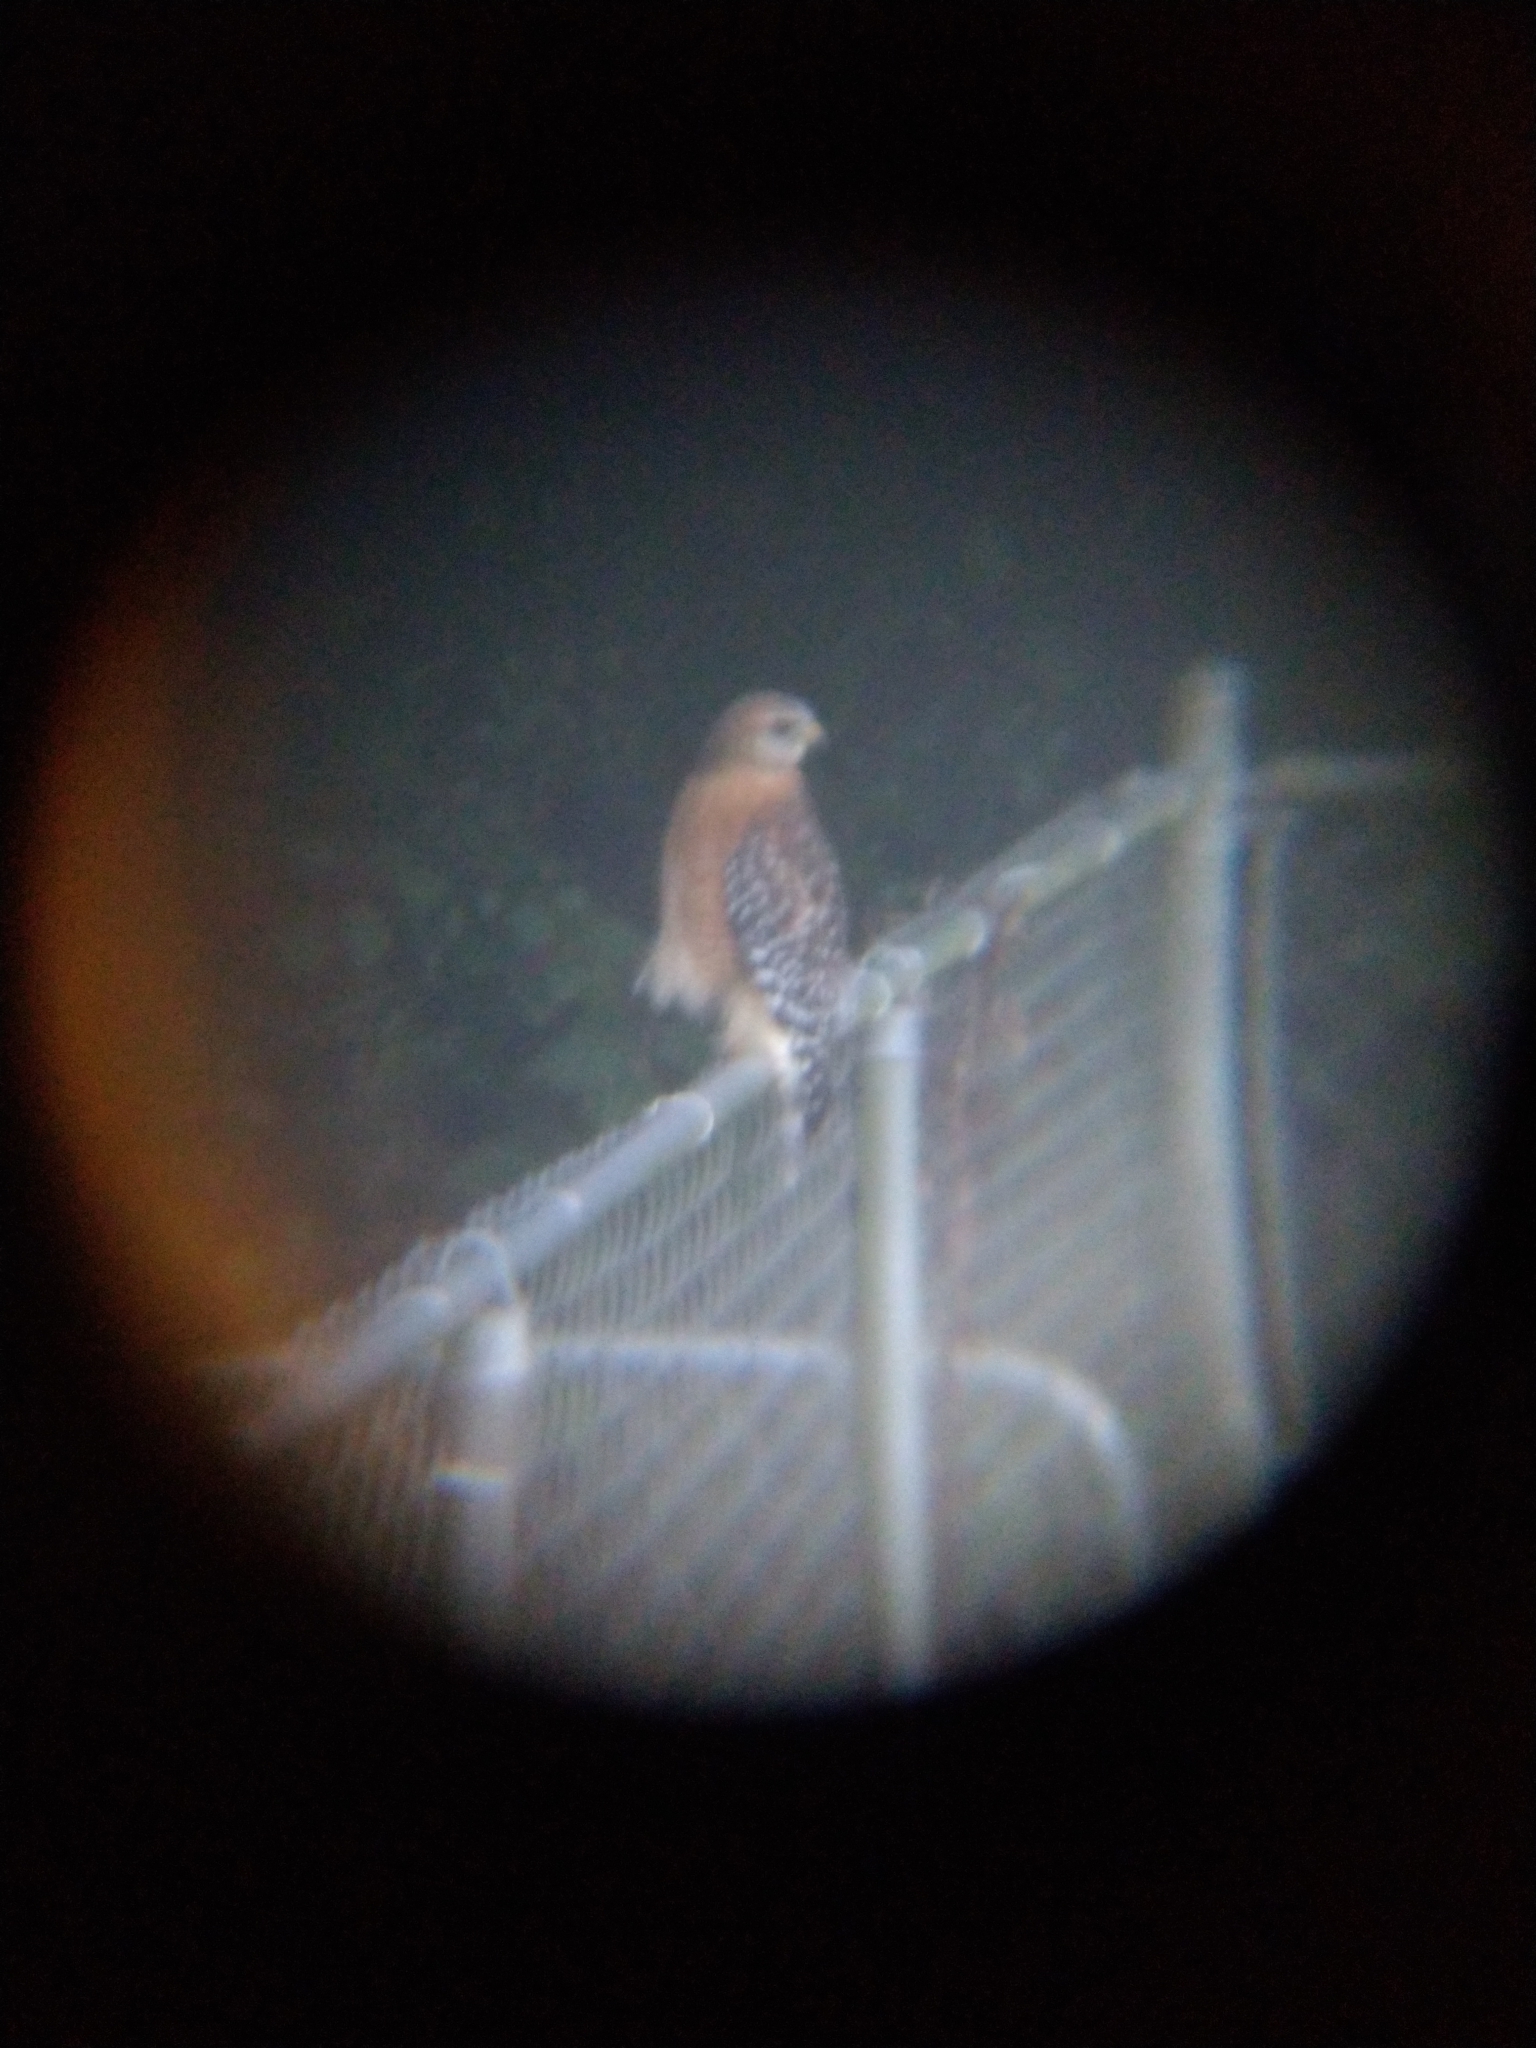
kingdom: Animalia
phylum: Chordata
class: Aves
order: Accipitriformes
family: Accipitridae
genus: Buteo
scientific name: Buteo lineatus
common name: Red-shouldered hawk
